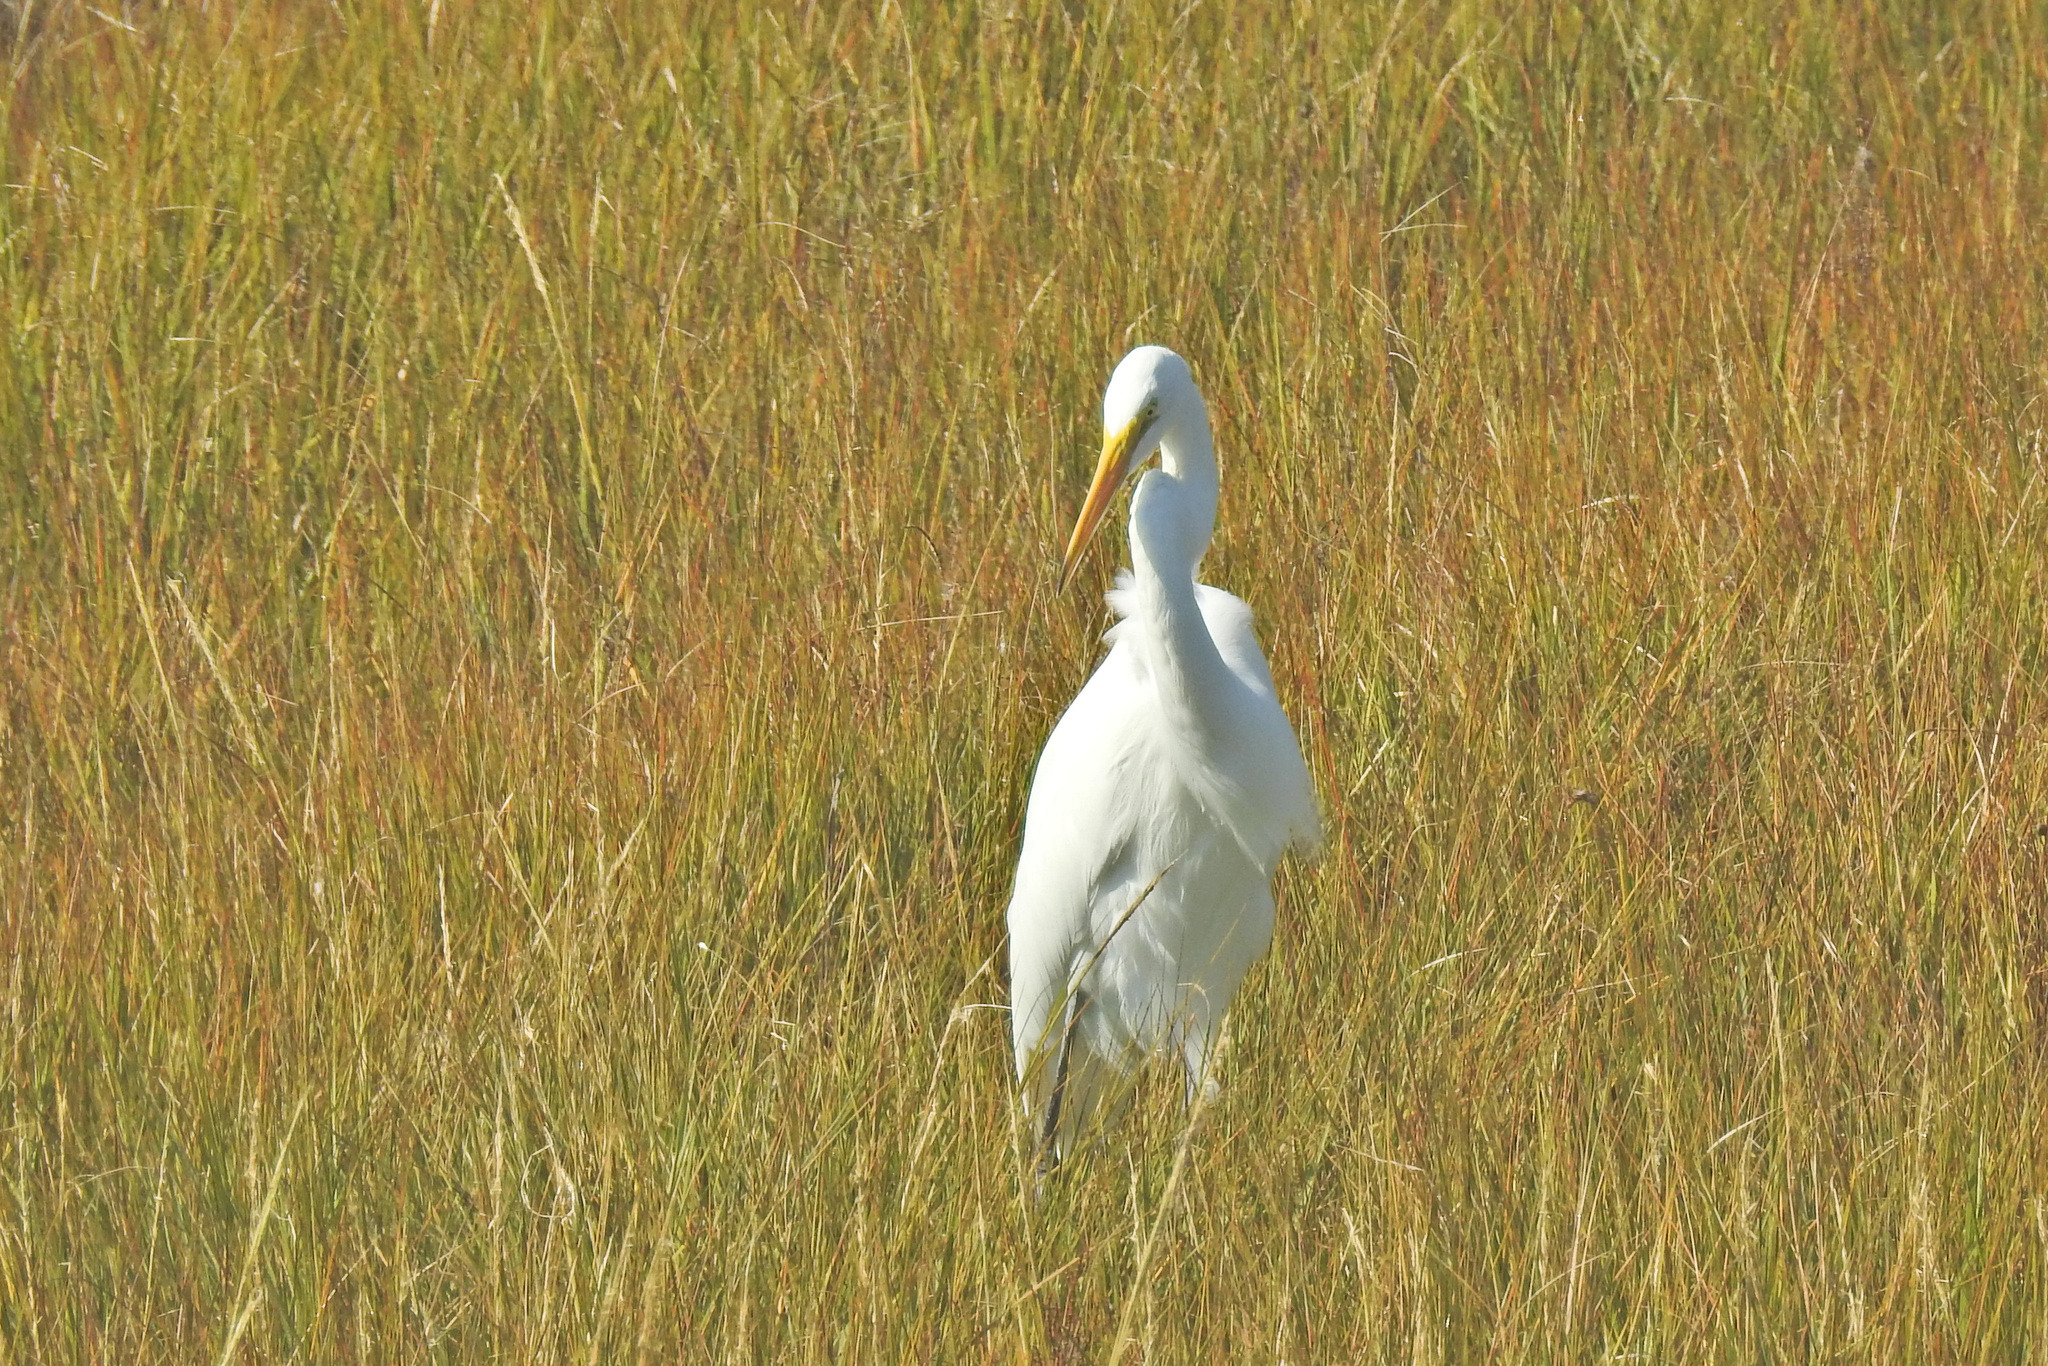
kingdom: Animalia
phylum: Chordata
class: Aves
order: Pelecaniformes
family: Ardeidae
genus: Ardea
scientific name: Ardea alba
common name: Great egret
